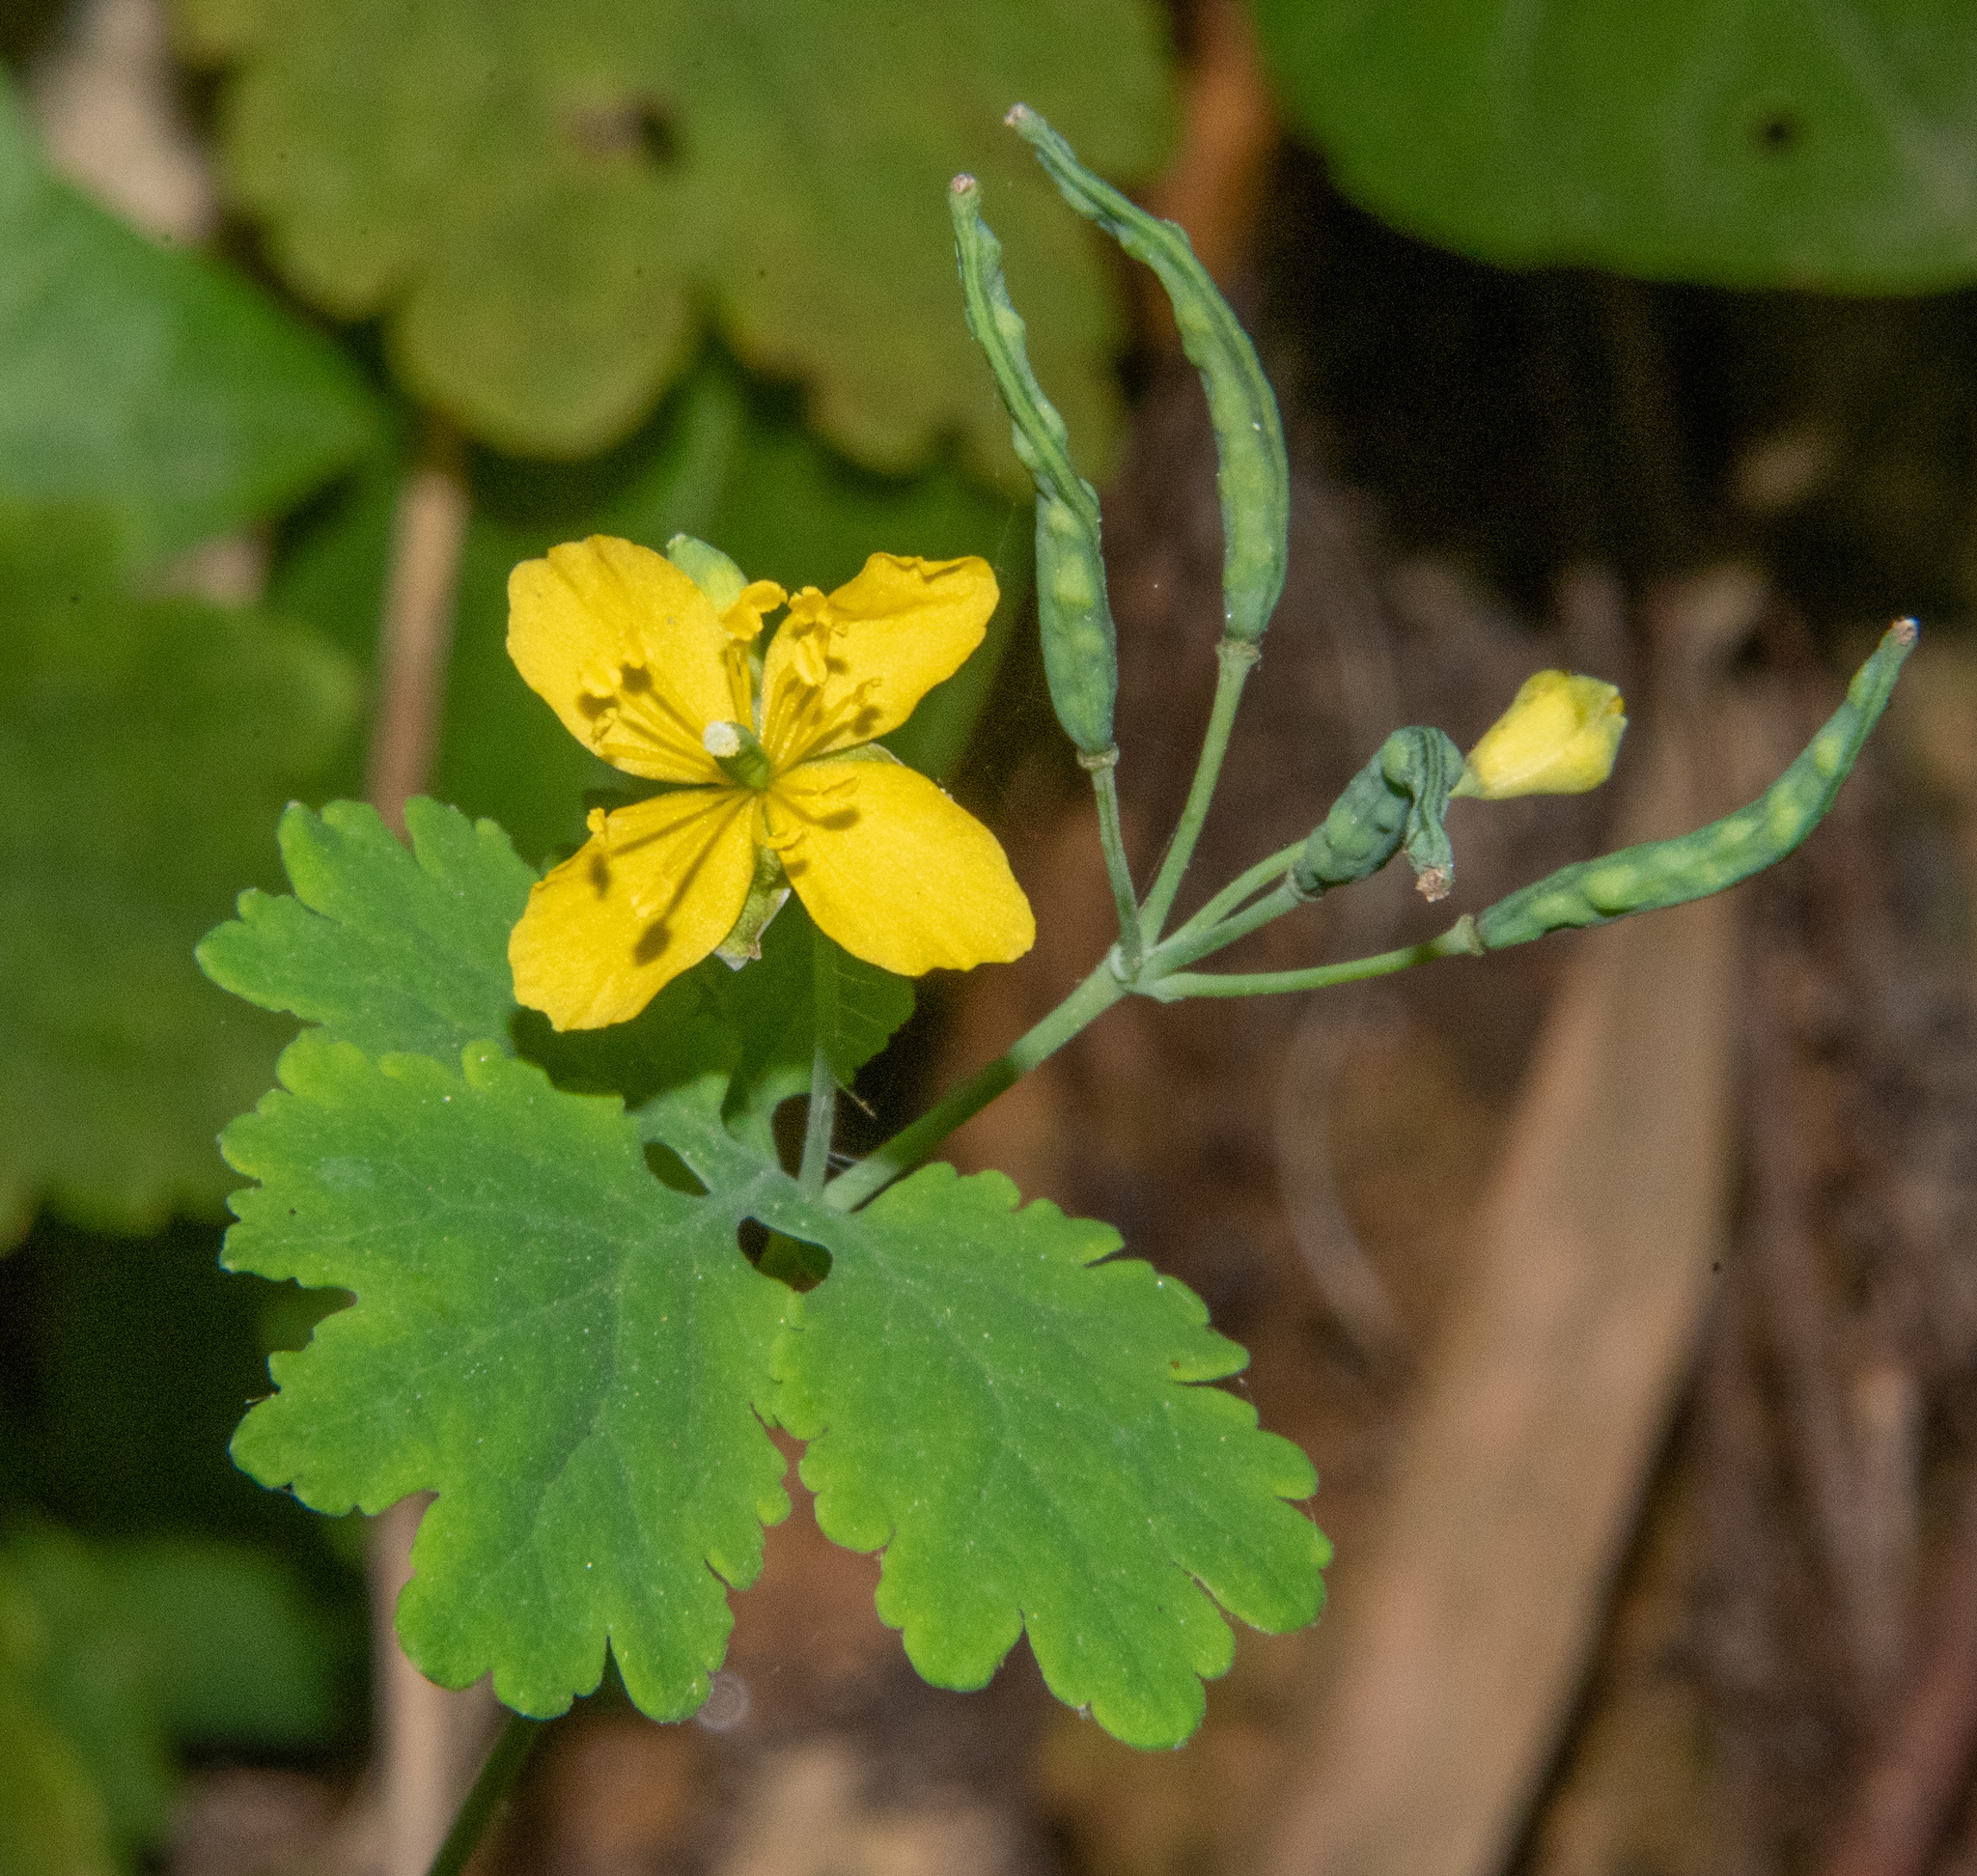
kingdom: Plantae
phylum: Tracheophyta
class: Magnoliopsida
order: Ranunculales
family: Papaveraceae
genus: Chelidonium
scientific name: Chelidonium majus
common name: Greater celandine
